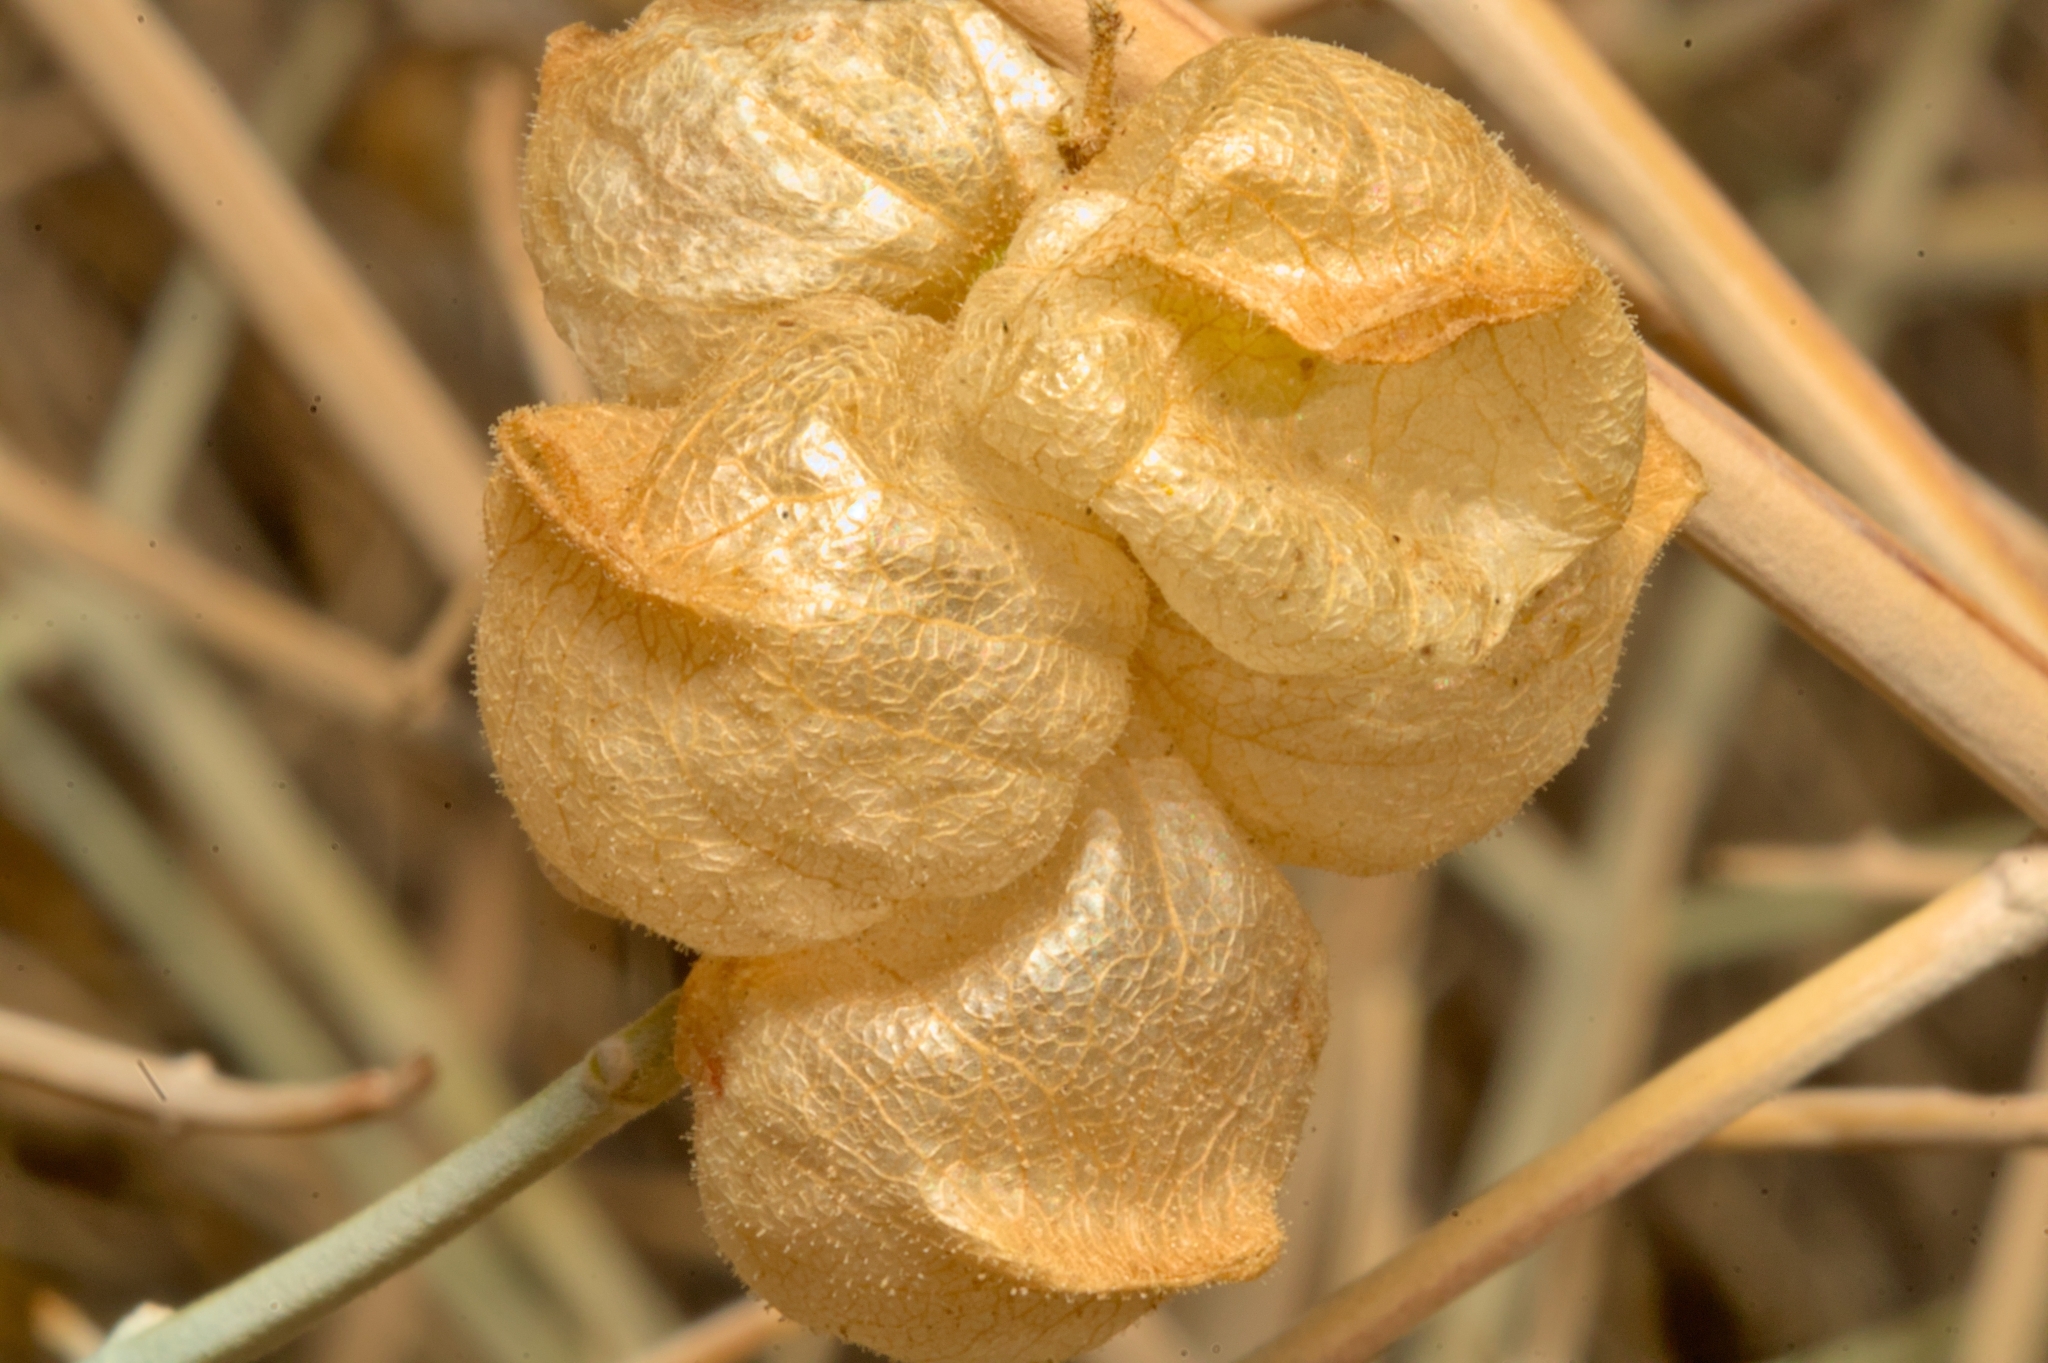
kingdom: Plantae
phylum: Tracheophyta
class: Magnoliopsida
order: Lamiales
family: Lamiaceae
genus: Scutellaria
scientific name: Scutellaria mexicana
